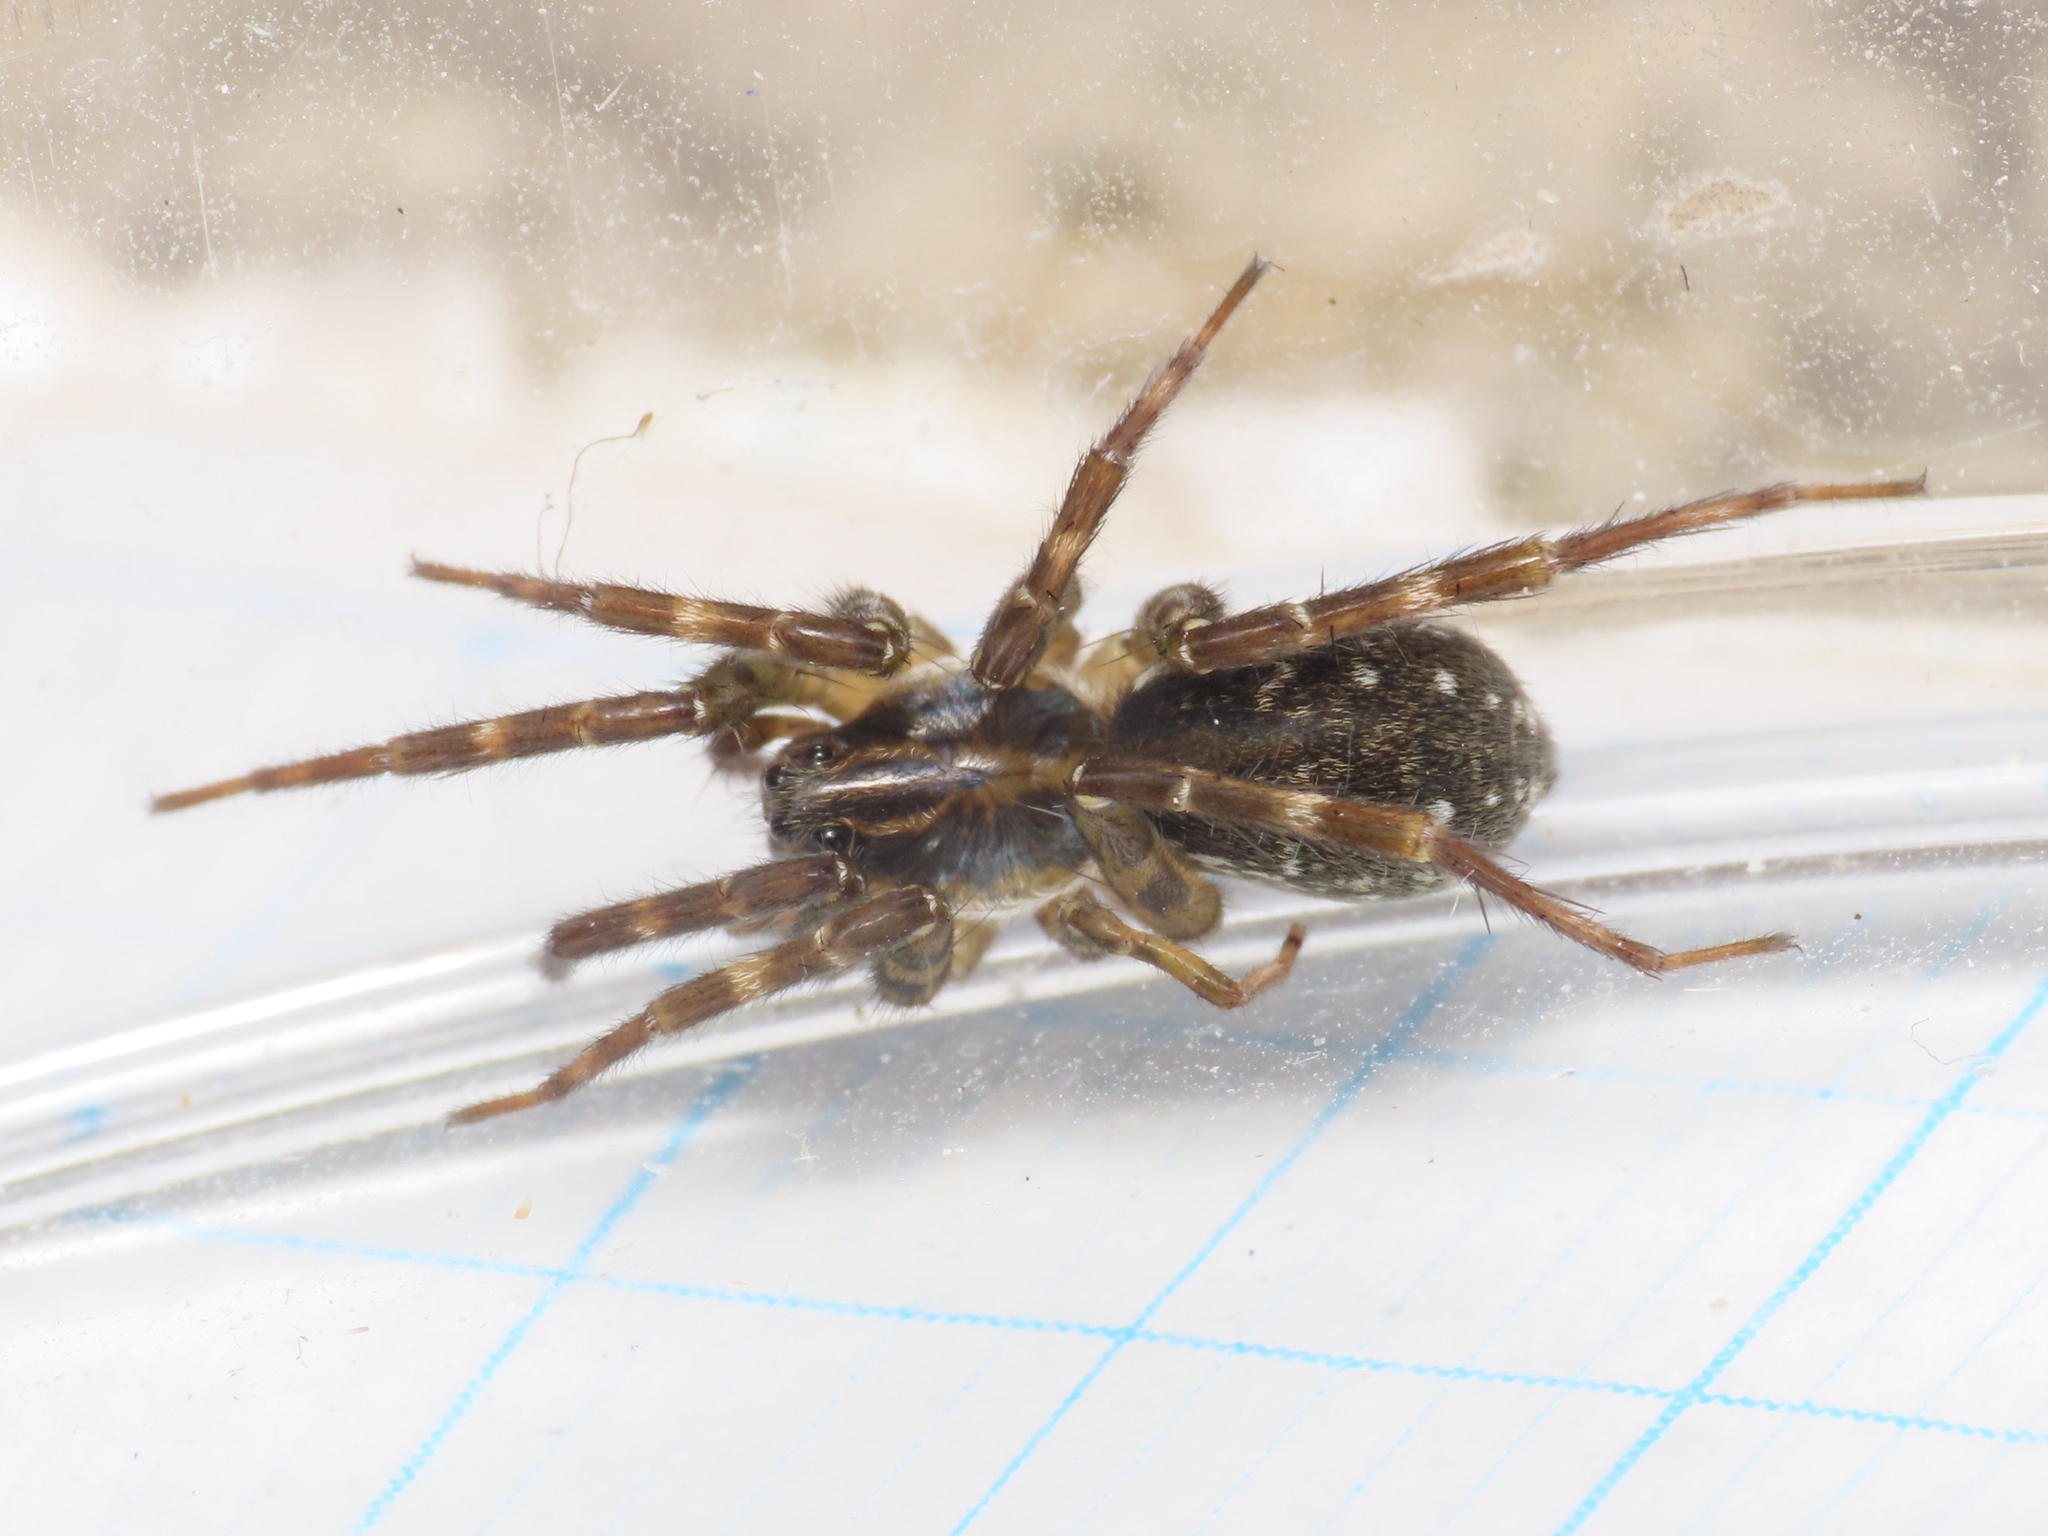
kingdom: Animalia
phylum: Arthropoda
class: Arachnida
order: Araneae
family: Lycosidae
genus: Piratula
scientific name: Piratula knorri
